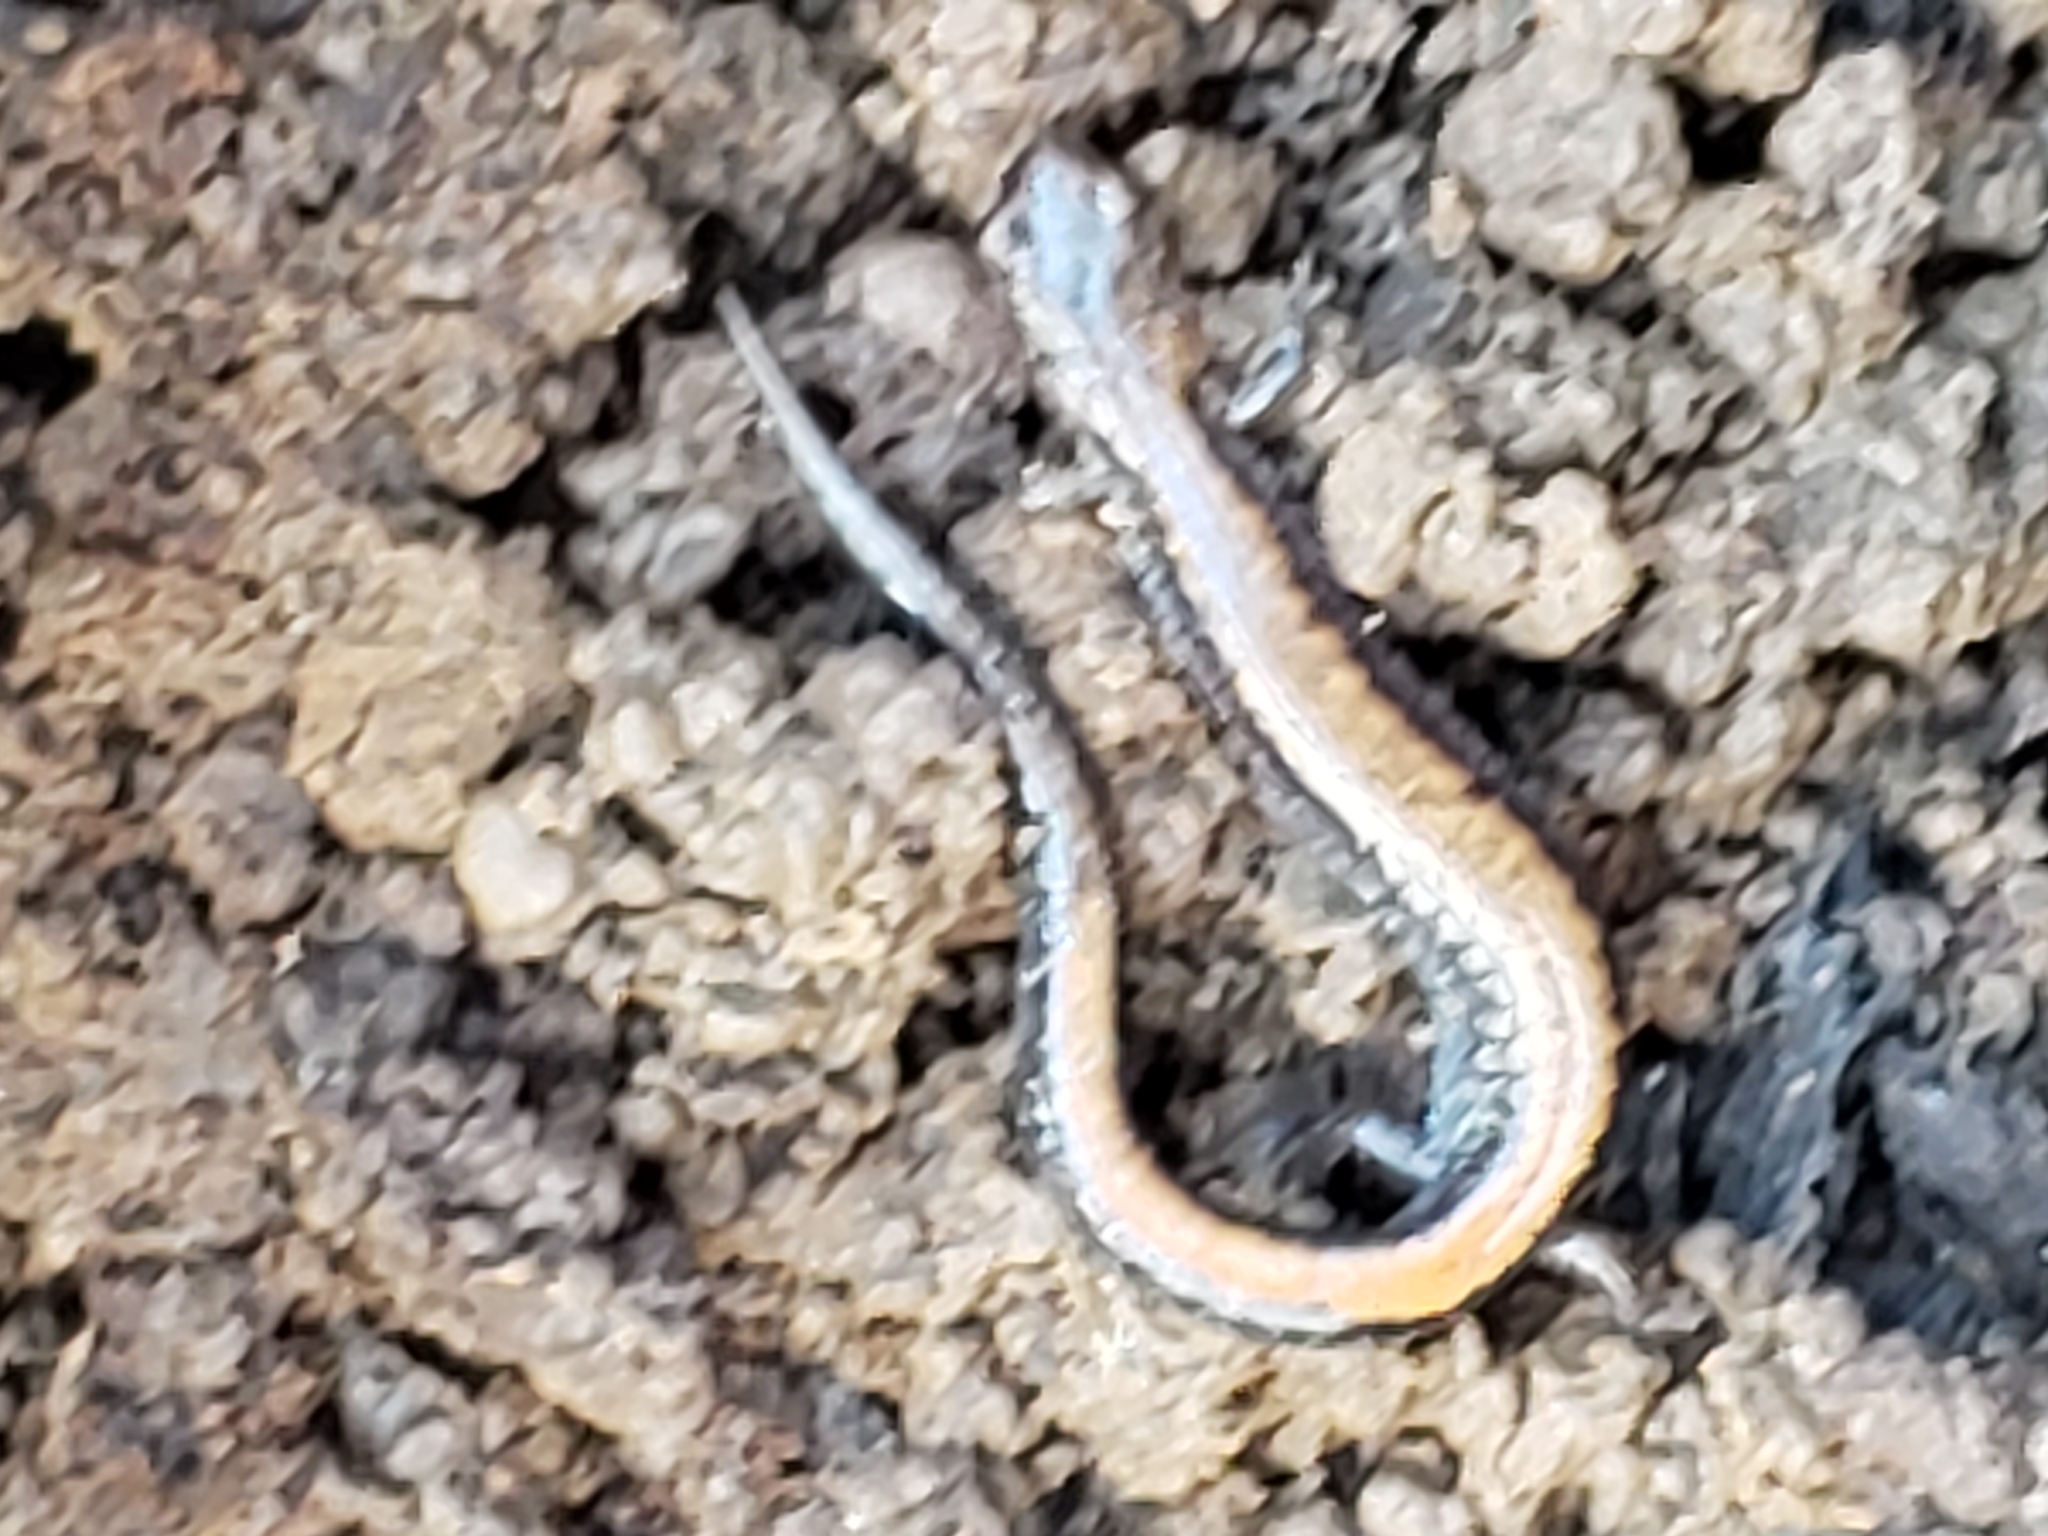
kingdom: Animalia
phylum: Chordata
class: Amphibia
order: Caudata
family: Plethodontidae
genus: Plethodon
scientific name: Plethodon cinereus
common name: Redback salamander
